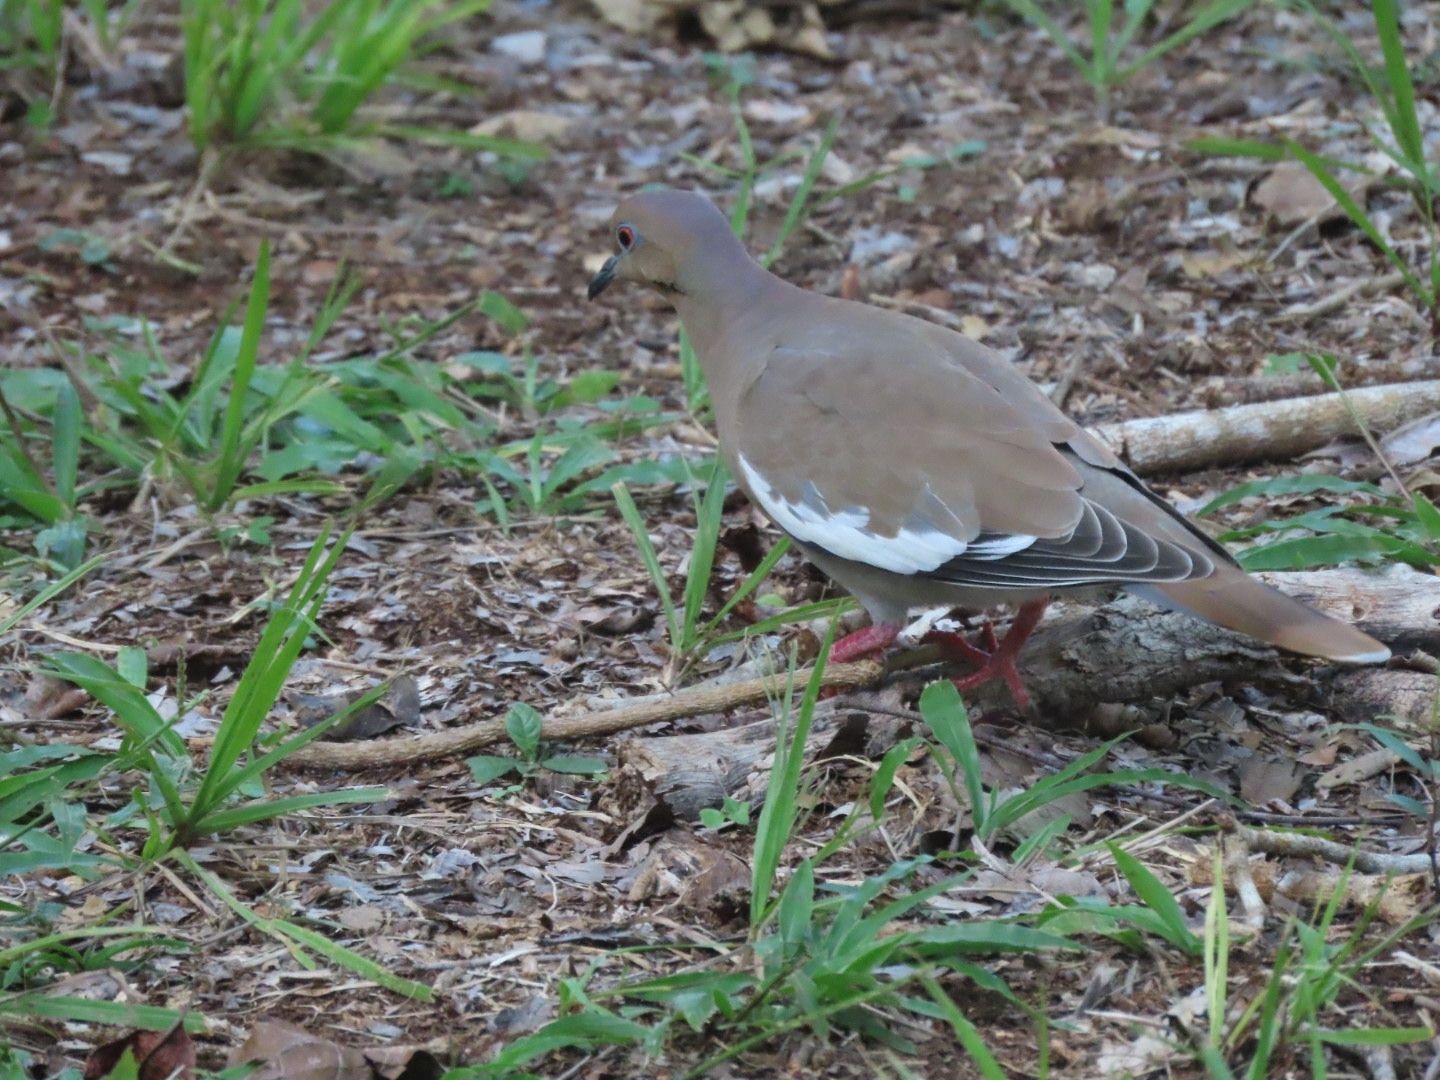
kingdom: Animalia
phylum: Chordata
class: Aves
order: Columbiformes
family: Columbidae
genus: Zenaida
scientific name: Zenaida asiatica
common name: White-winged dove
